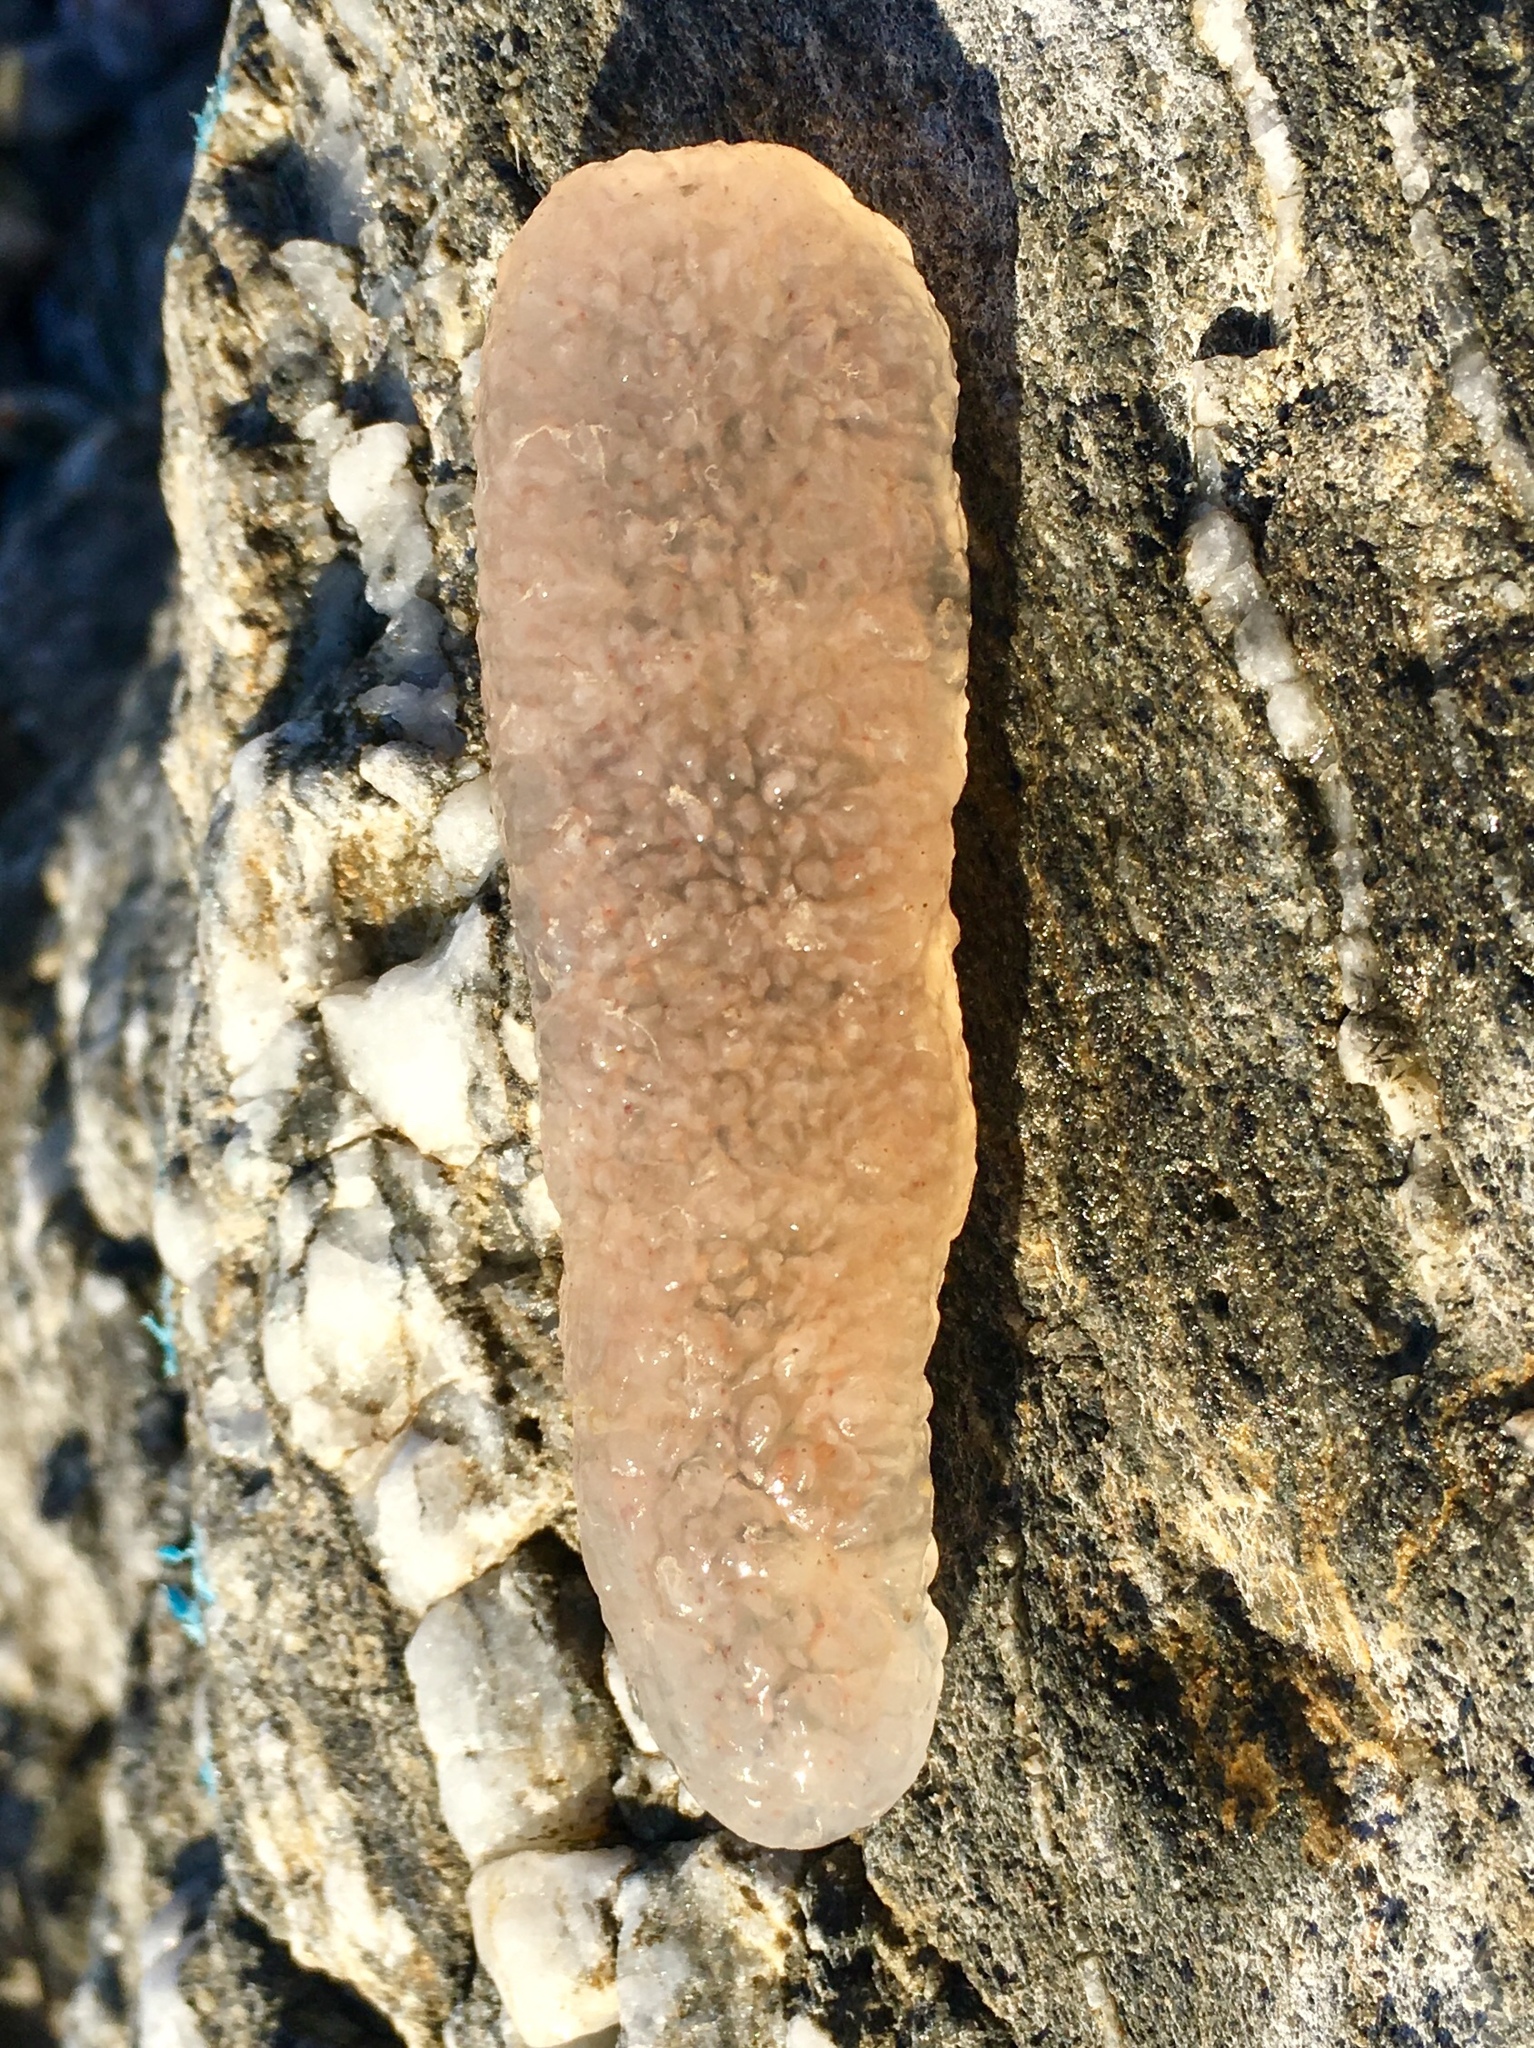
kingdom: Animalia
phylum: Chordata
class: Thaliacea
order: Pyrosomatida
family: Pyrosomatidae
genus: Pyrosoma
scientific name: Pyrosoma atlanticum
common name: Atlantic pyrosomes
